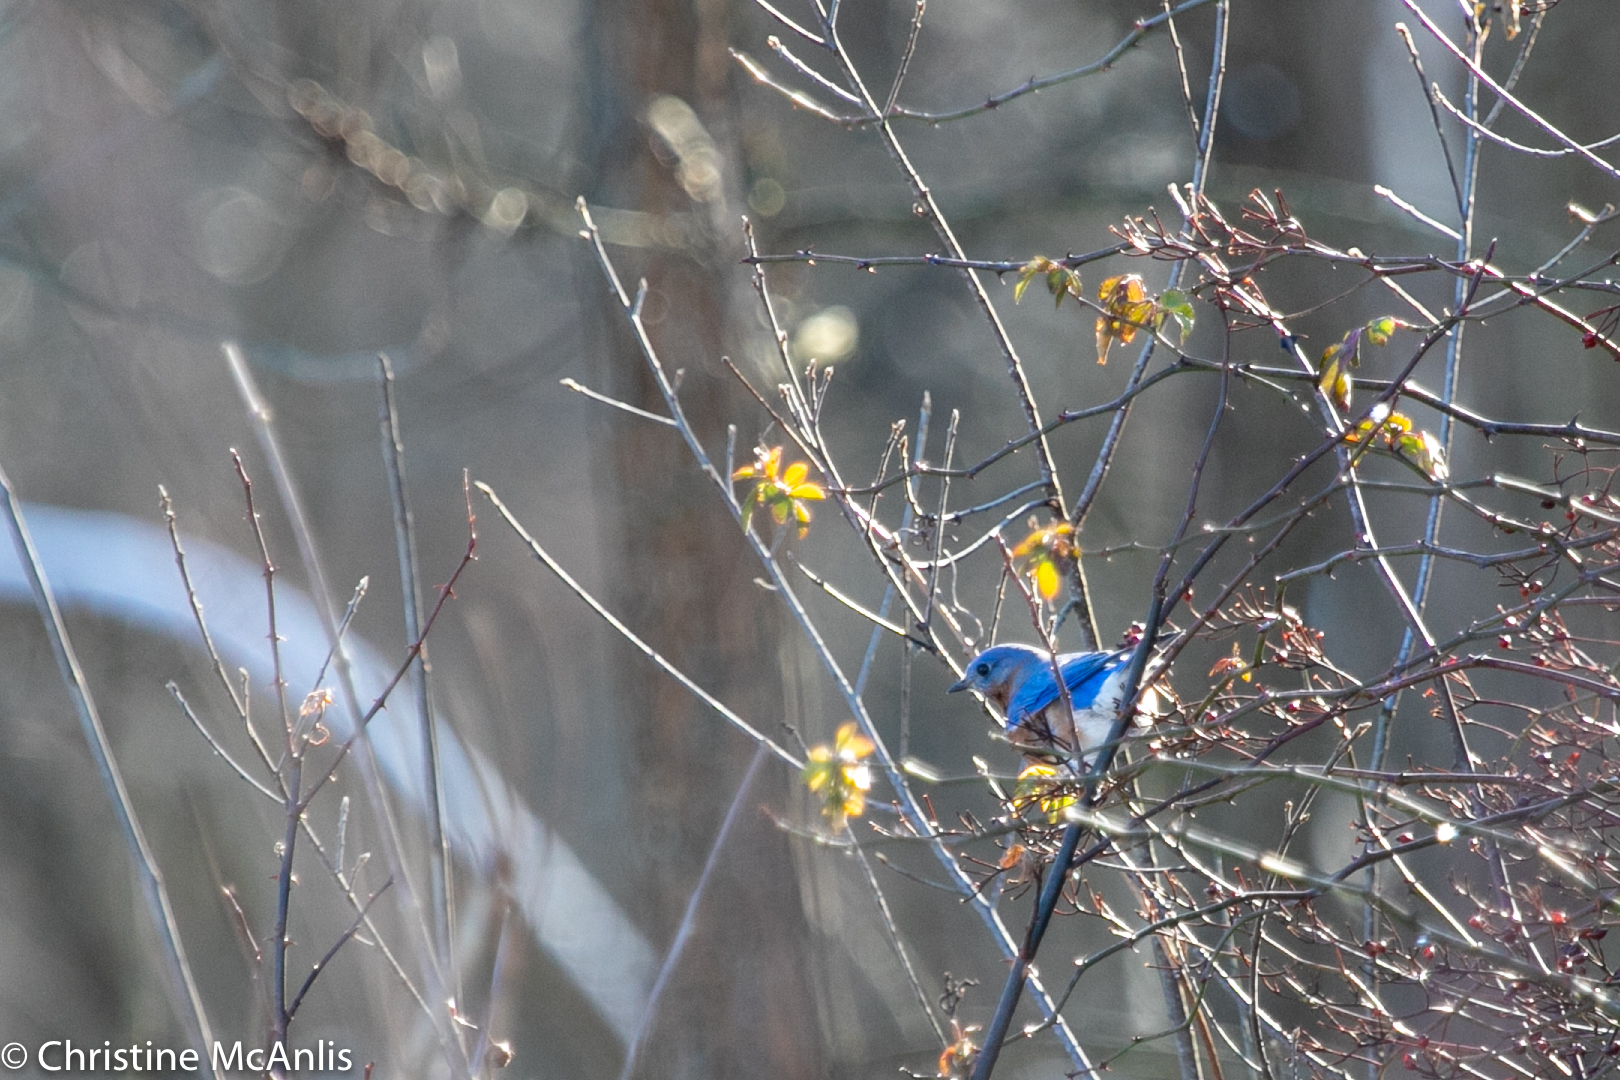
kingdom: Animalia
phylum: Chordata
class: Aves
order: Passeriformes
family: Turdidae
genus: Sialia
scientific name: Sialia sialis
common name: Eastern bluebird
